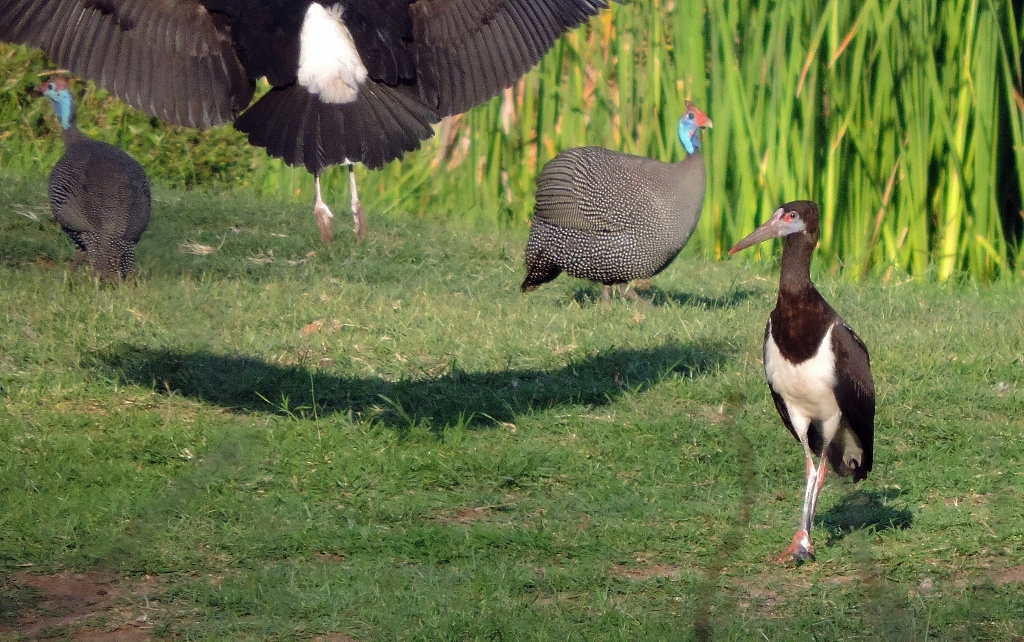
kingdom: Animalia
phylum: Chordata
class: Aves
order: Ciconiiformes
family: Ciconiidae
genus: Ciconia
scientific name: Ciconia abdimii
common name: Abdim's stork
